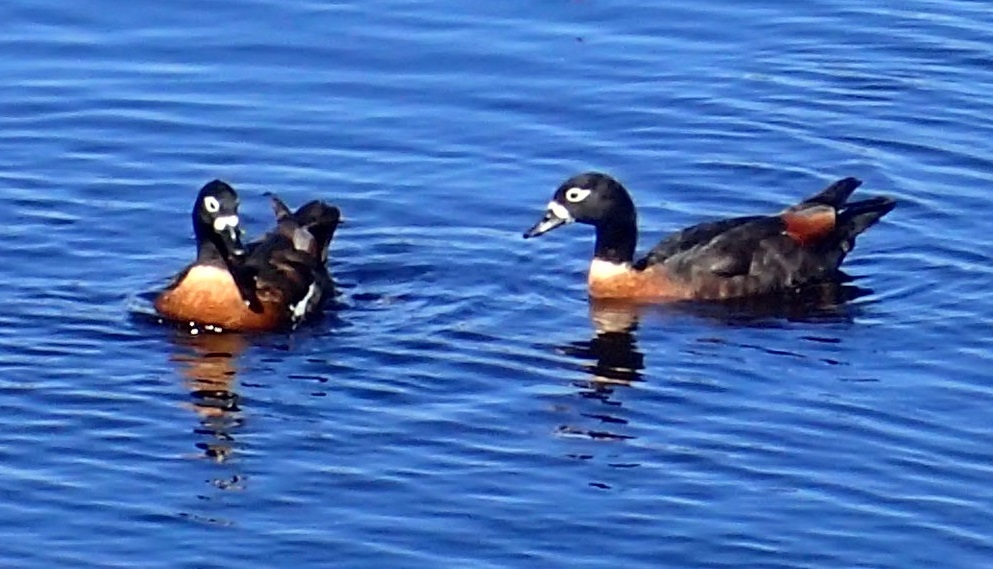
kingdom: Animalia
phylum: Chordata
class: Aves
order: Anseriformes
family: Anatidae
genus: Tadorna
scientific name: Tadorna tadornoides
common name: Australian shelduck
